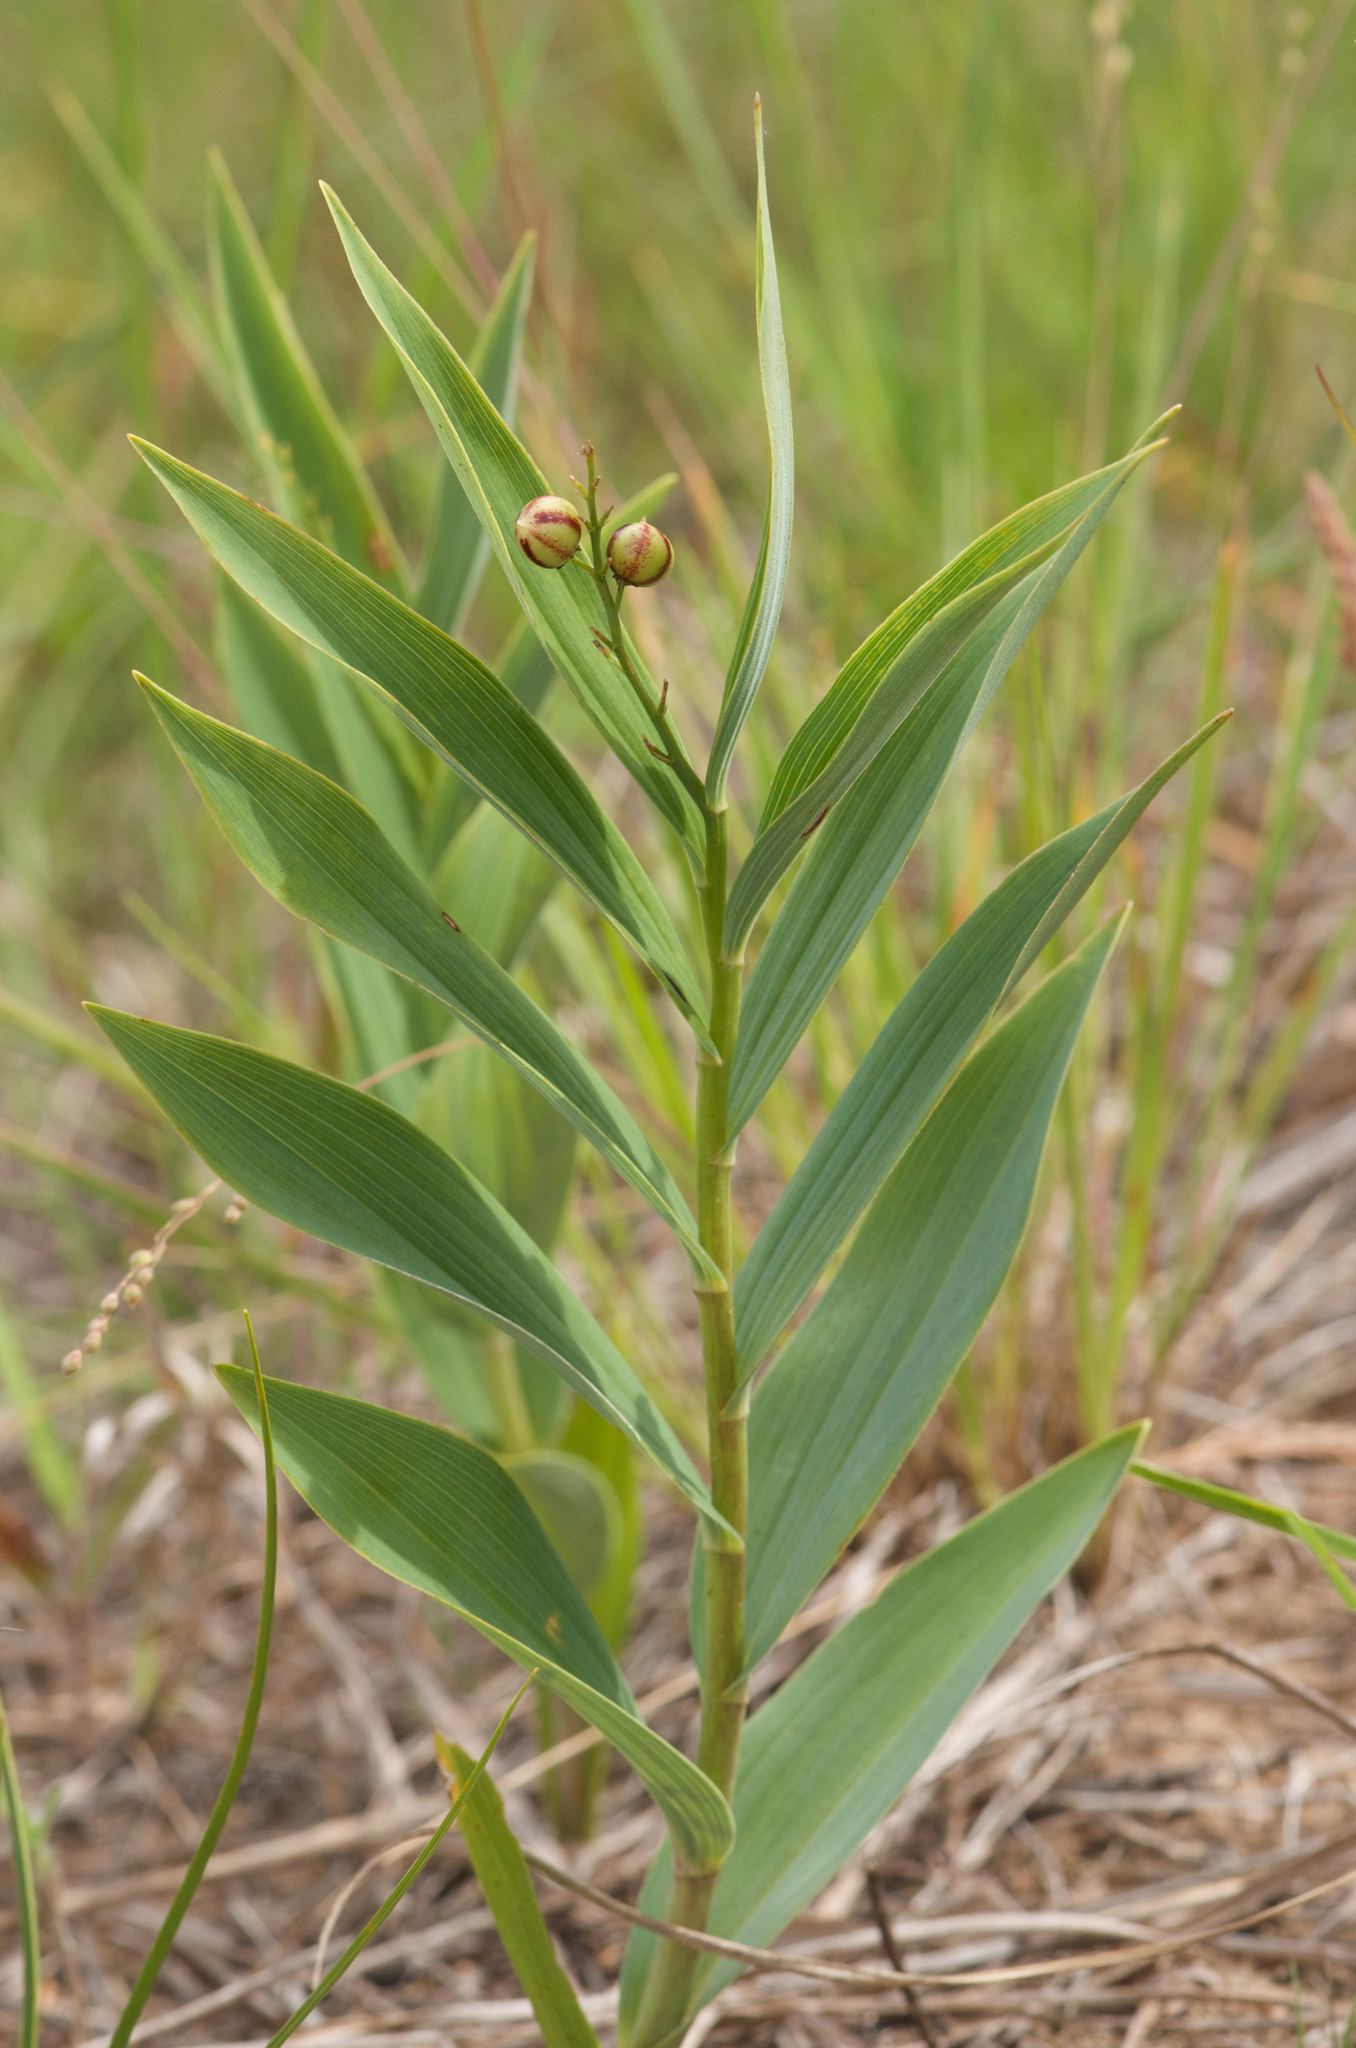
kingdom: Plantae
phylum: Tracheophyta
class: Liliopsida
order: Asparagales
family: Asparagaceae
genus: Maianthemum
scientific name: Maianthemum stellatum
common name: Little false solomon's seal
